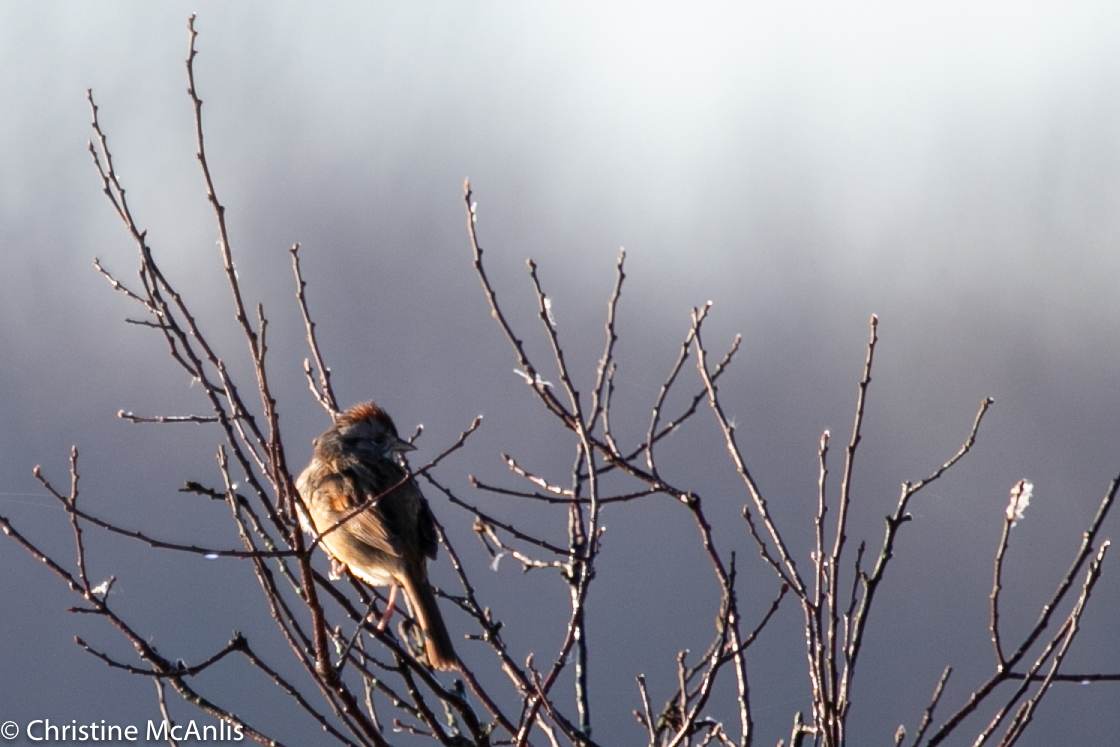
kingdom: Animalia
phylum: Chordata
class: Aves
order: Passeriformes
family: Passerellidae
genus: Melospiza
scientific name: Melospiza georgiana
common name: Swamp sparrow
